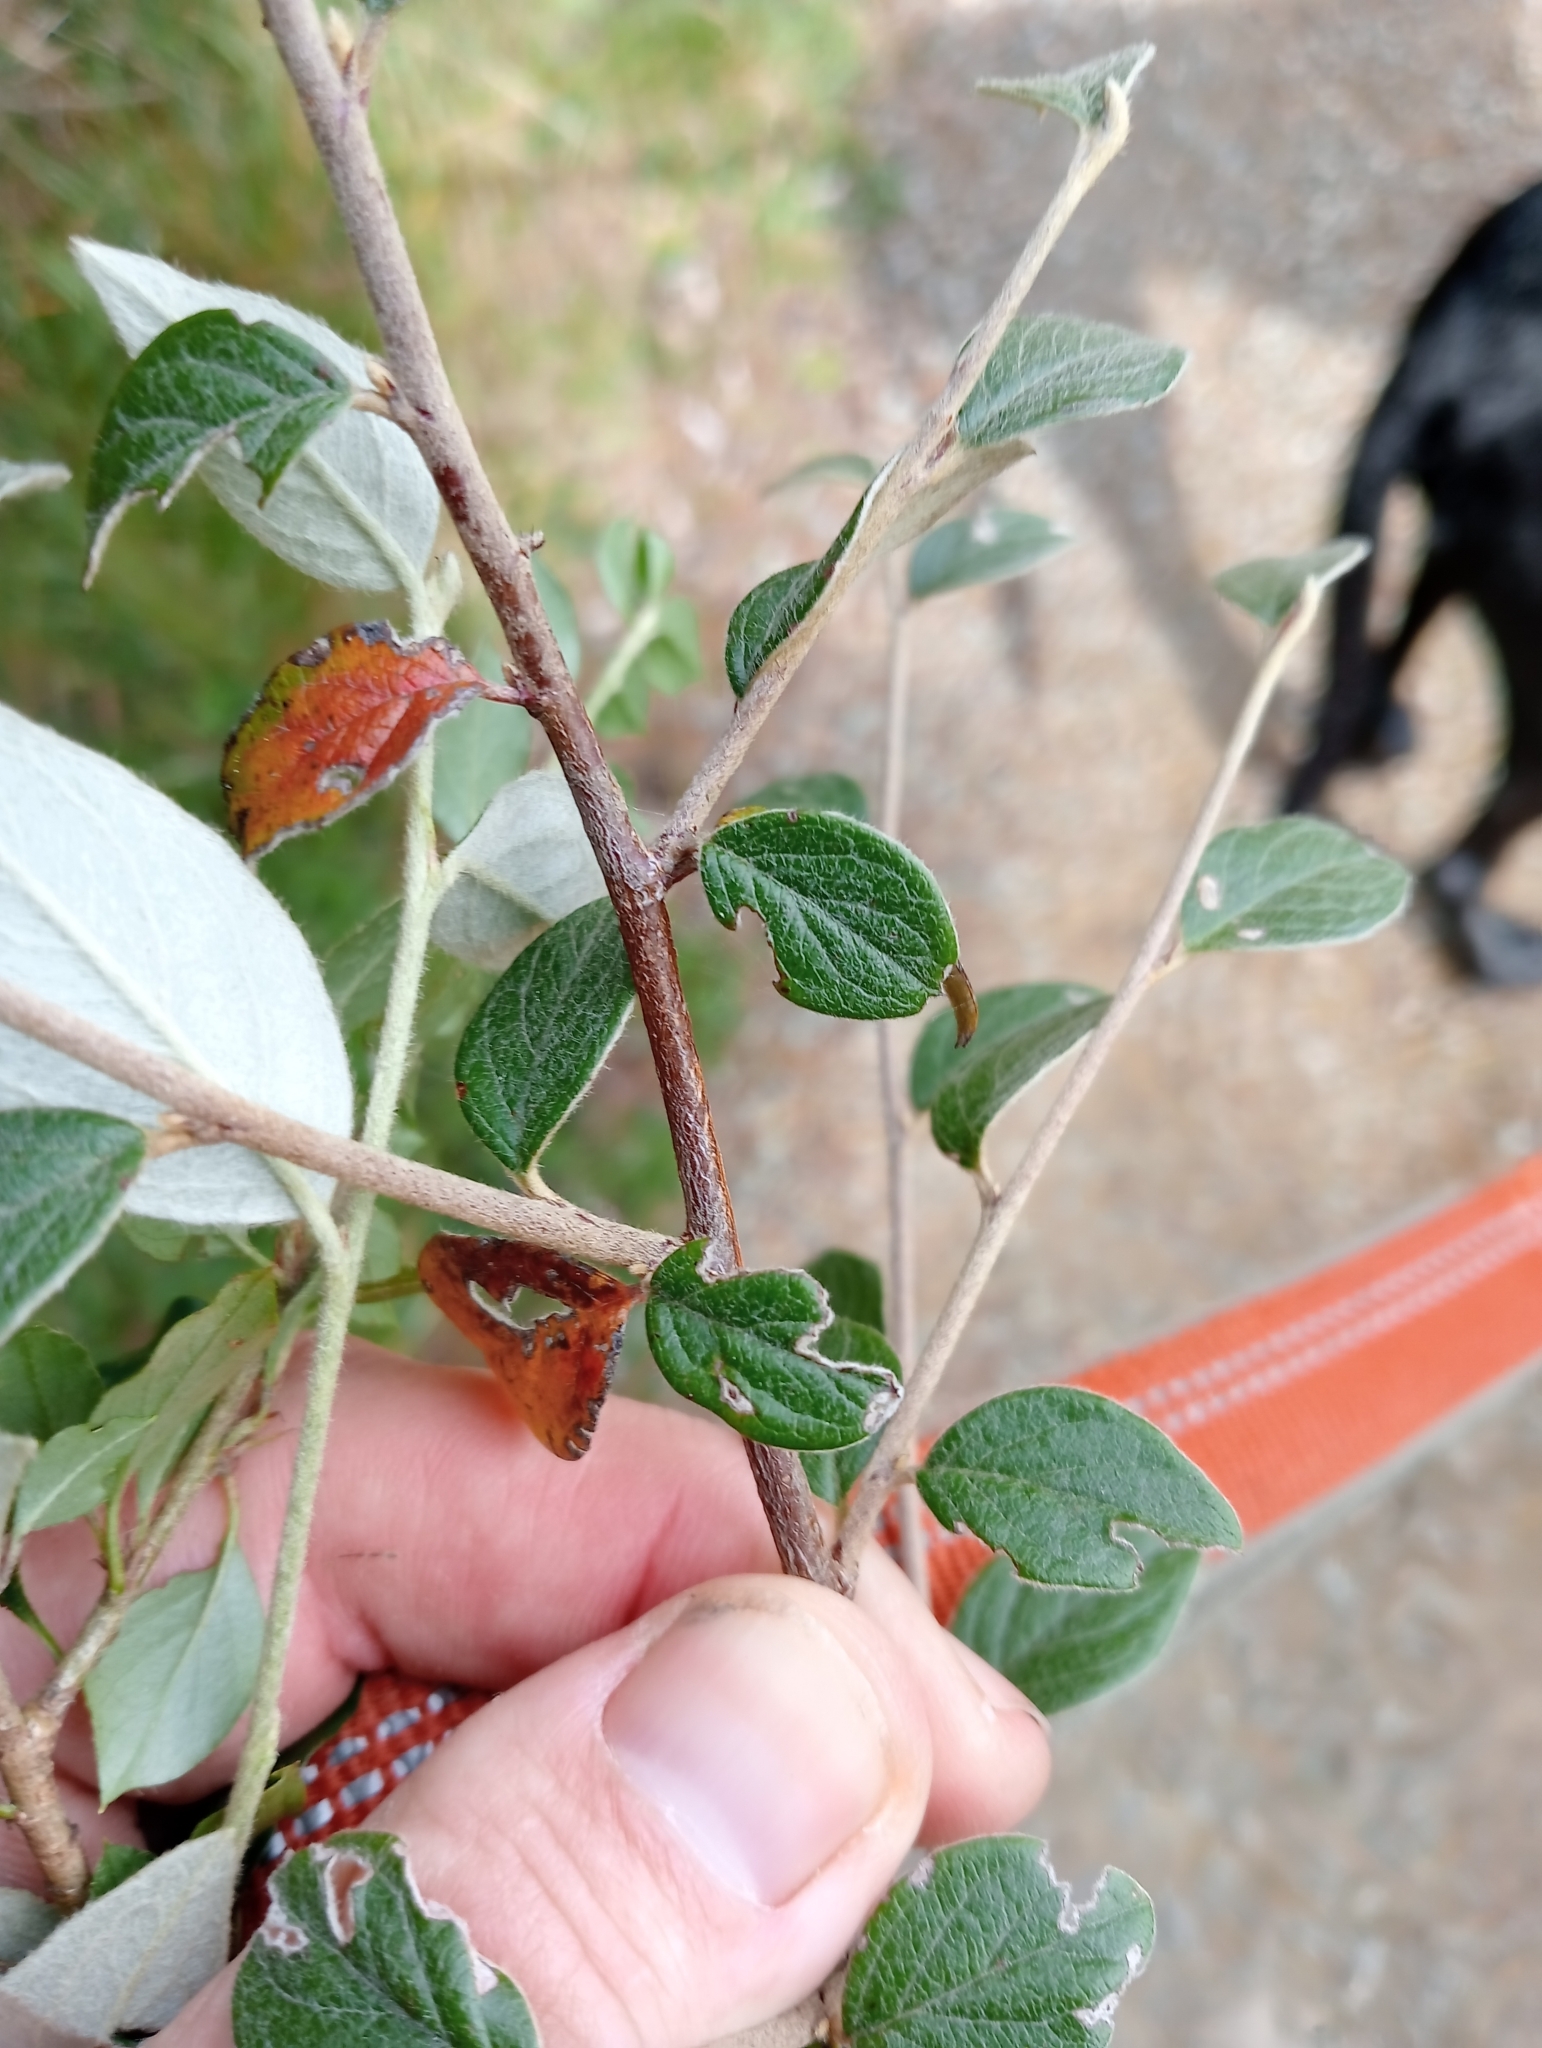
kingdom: Plantae
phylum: Tracheophyta
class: Magnoliopsida
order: Rosales
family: Rosaceae
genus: Cotoneaster
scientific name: Cotoneaster franchetii
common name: Franchet's cotoneaster
